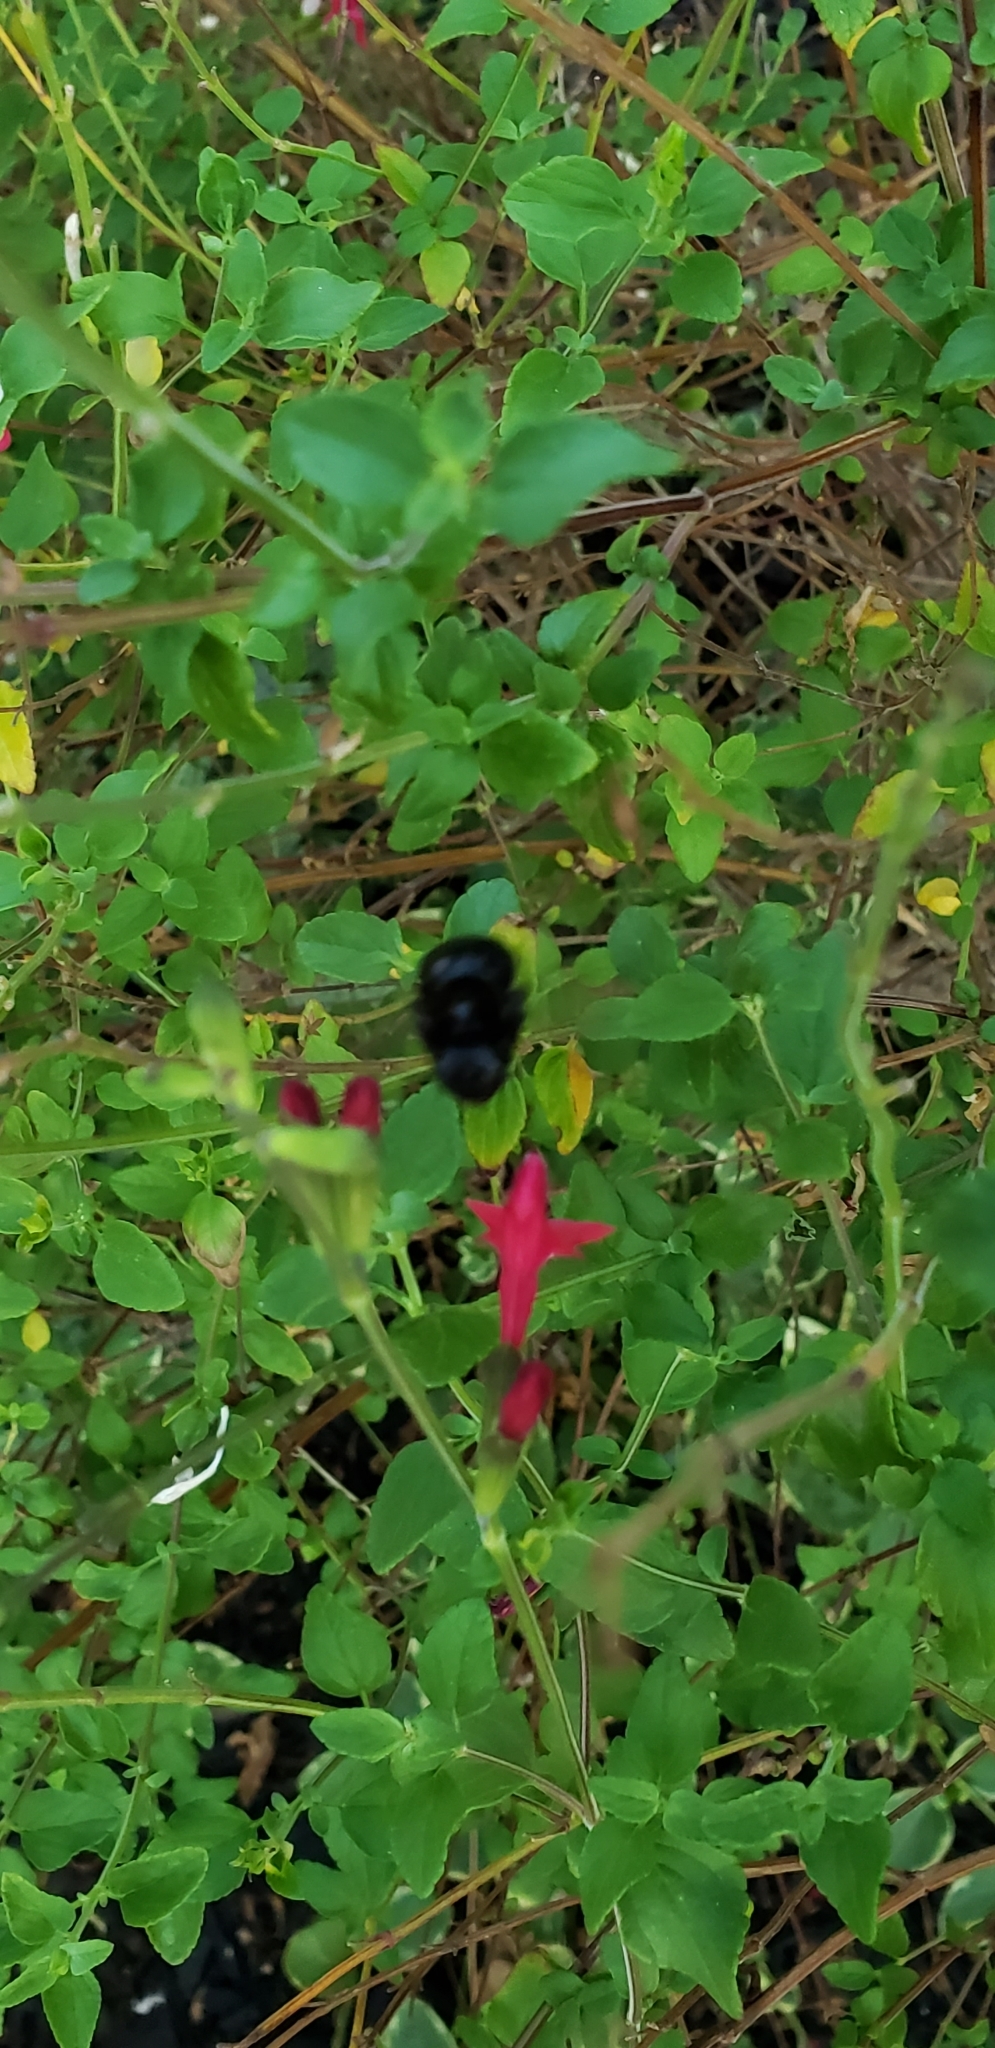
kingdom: Animalia
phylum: Arthropoda
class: Insecta
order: Hymenoptera
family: Apidae
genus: Xylocopa
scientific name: Xylocopa tabaniformis
